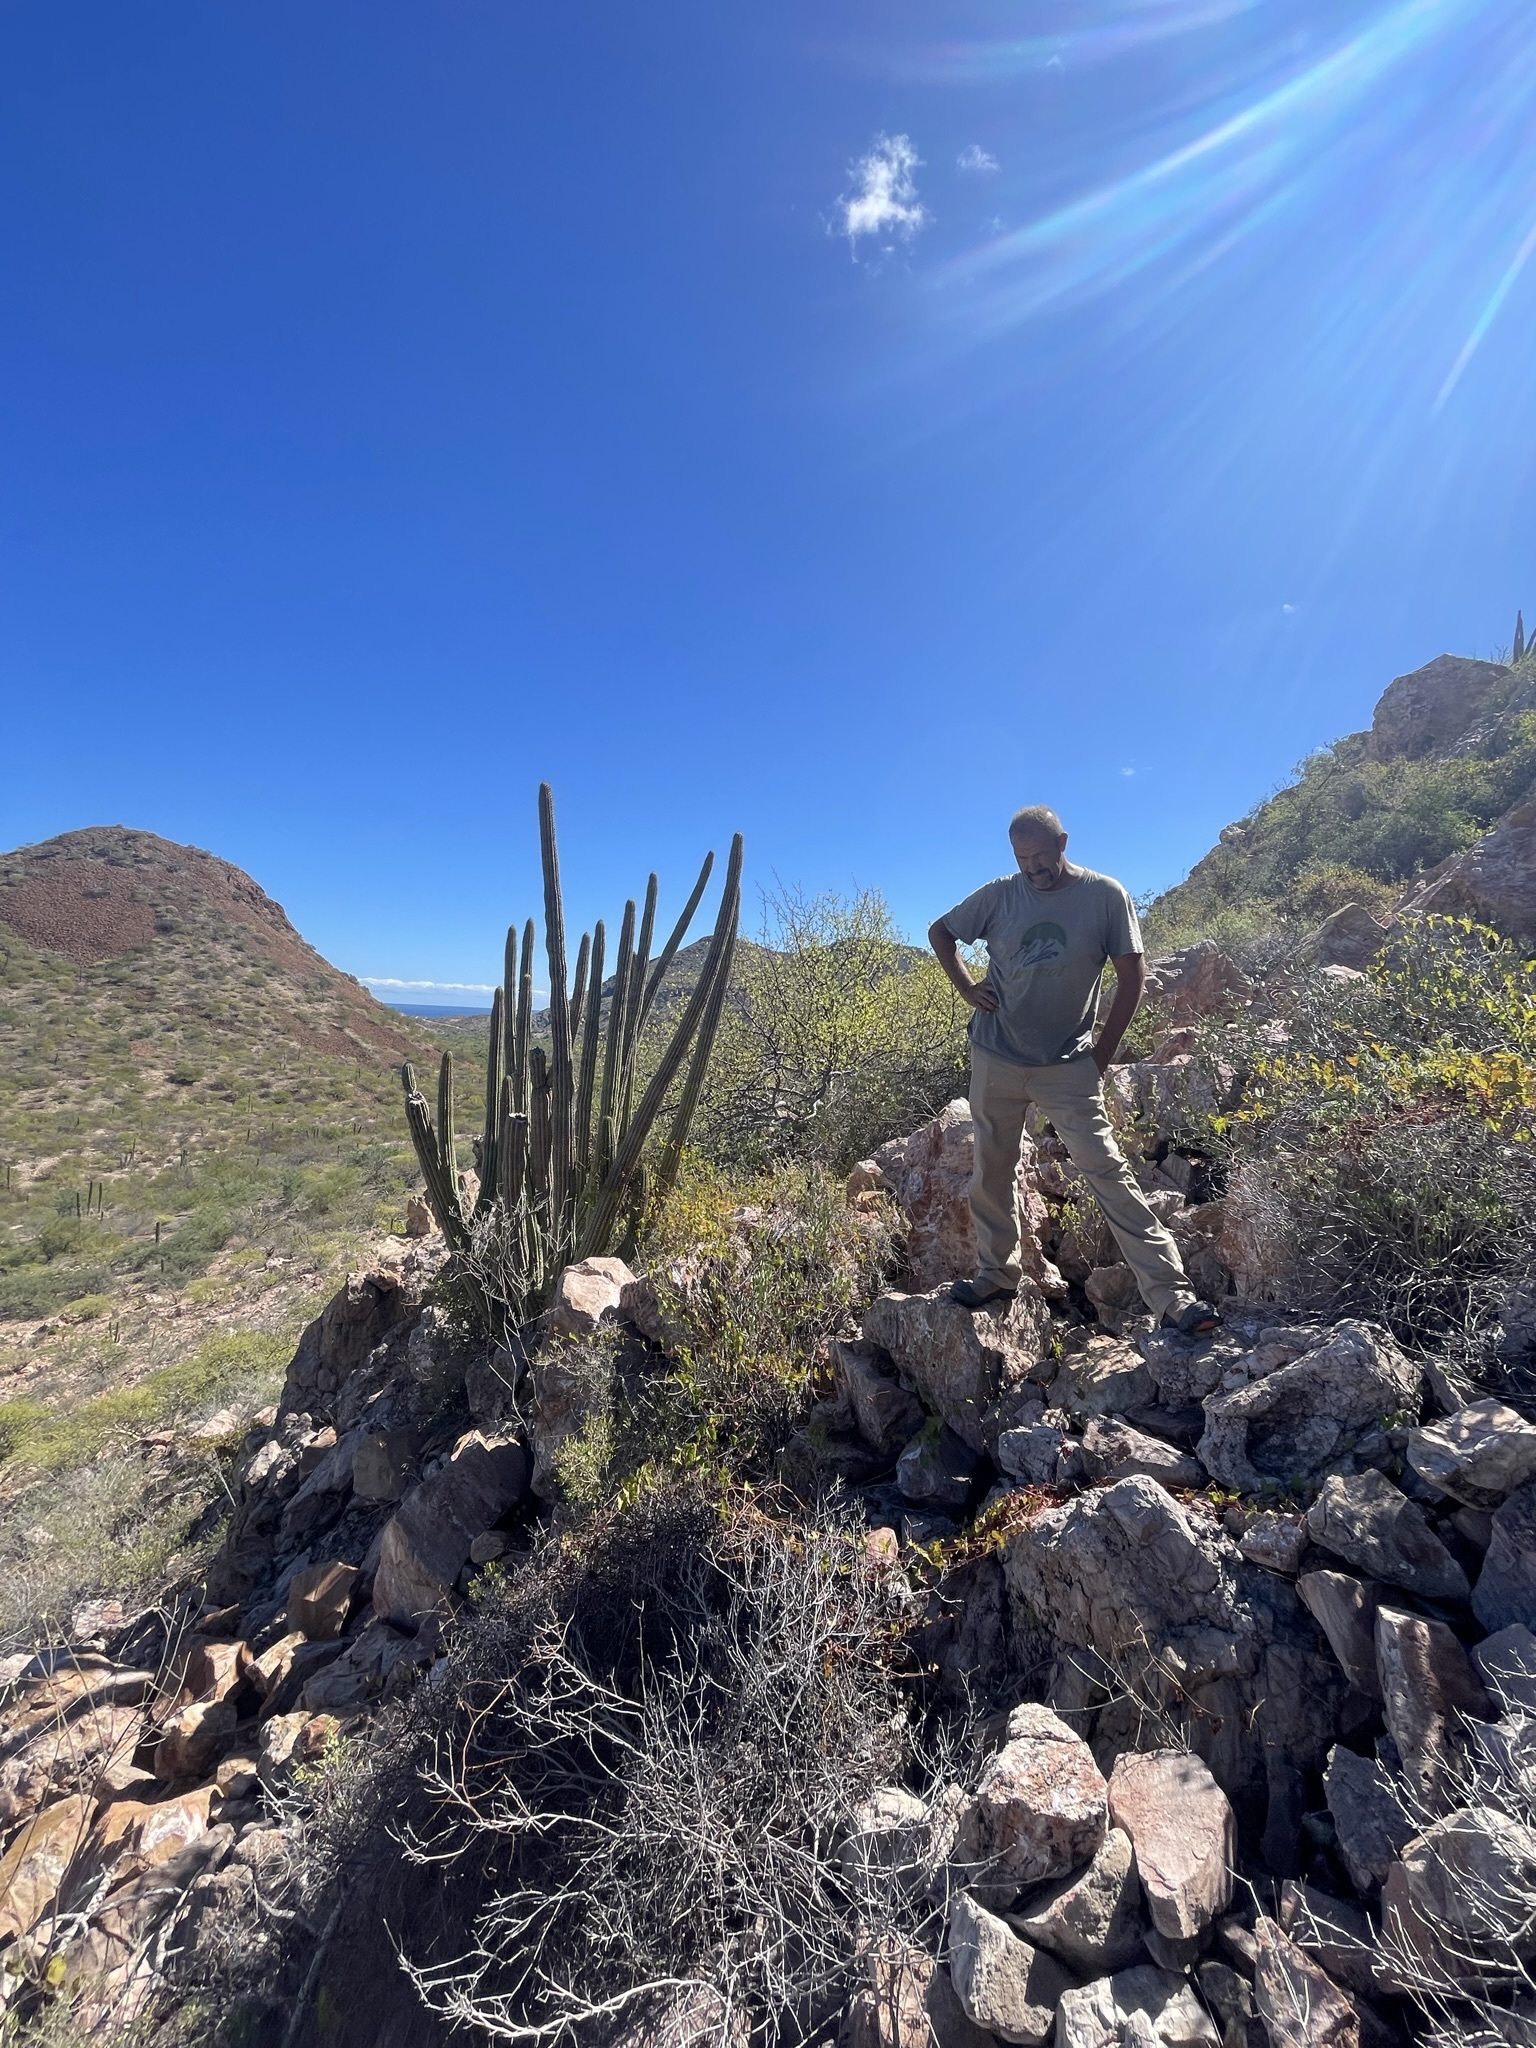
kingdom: Plantae
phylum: Tracheophyta
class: Magnoliopsida
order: Caryophyllales
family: Cactaceae
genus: Stenocereus
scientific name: Stenocereus thurberi
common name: Organ pipe cactus
